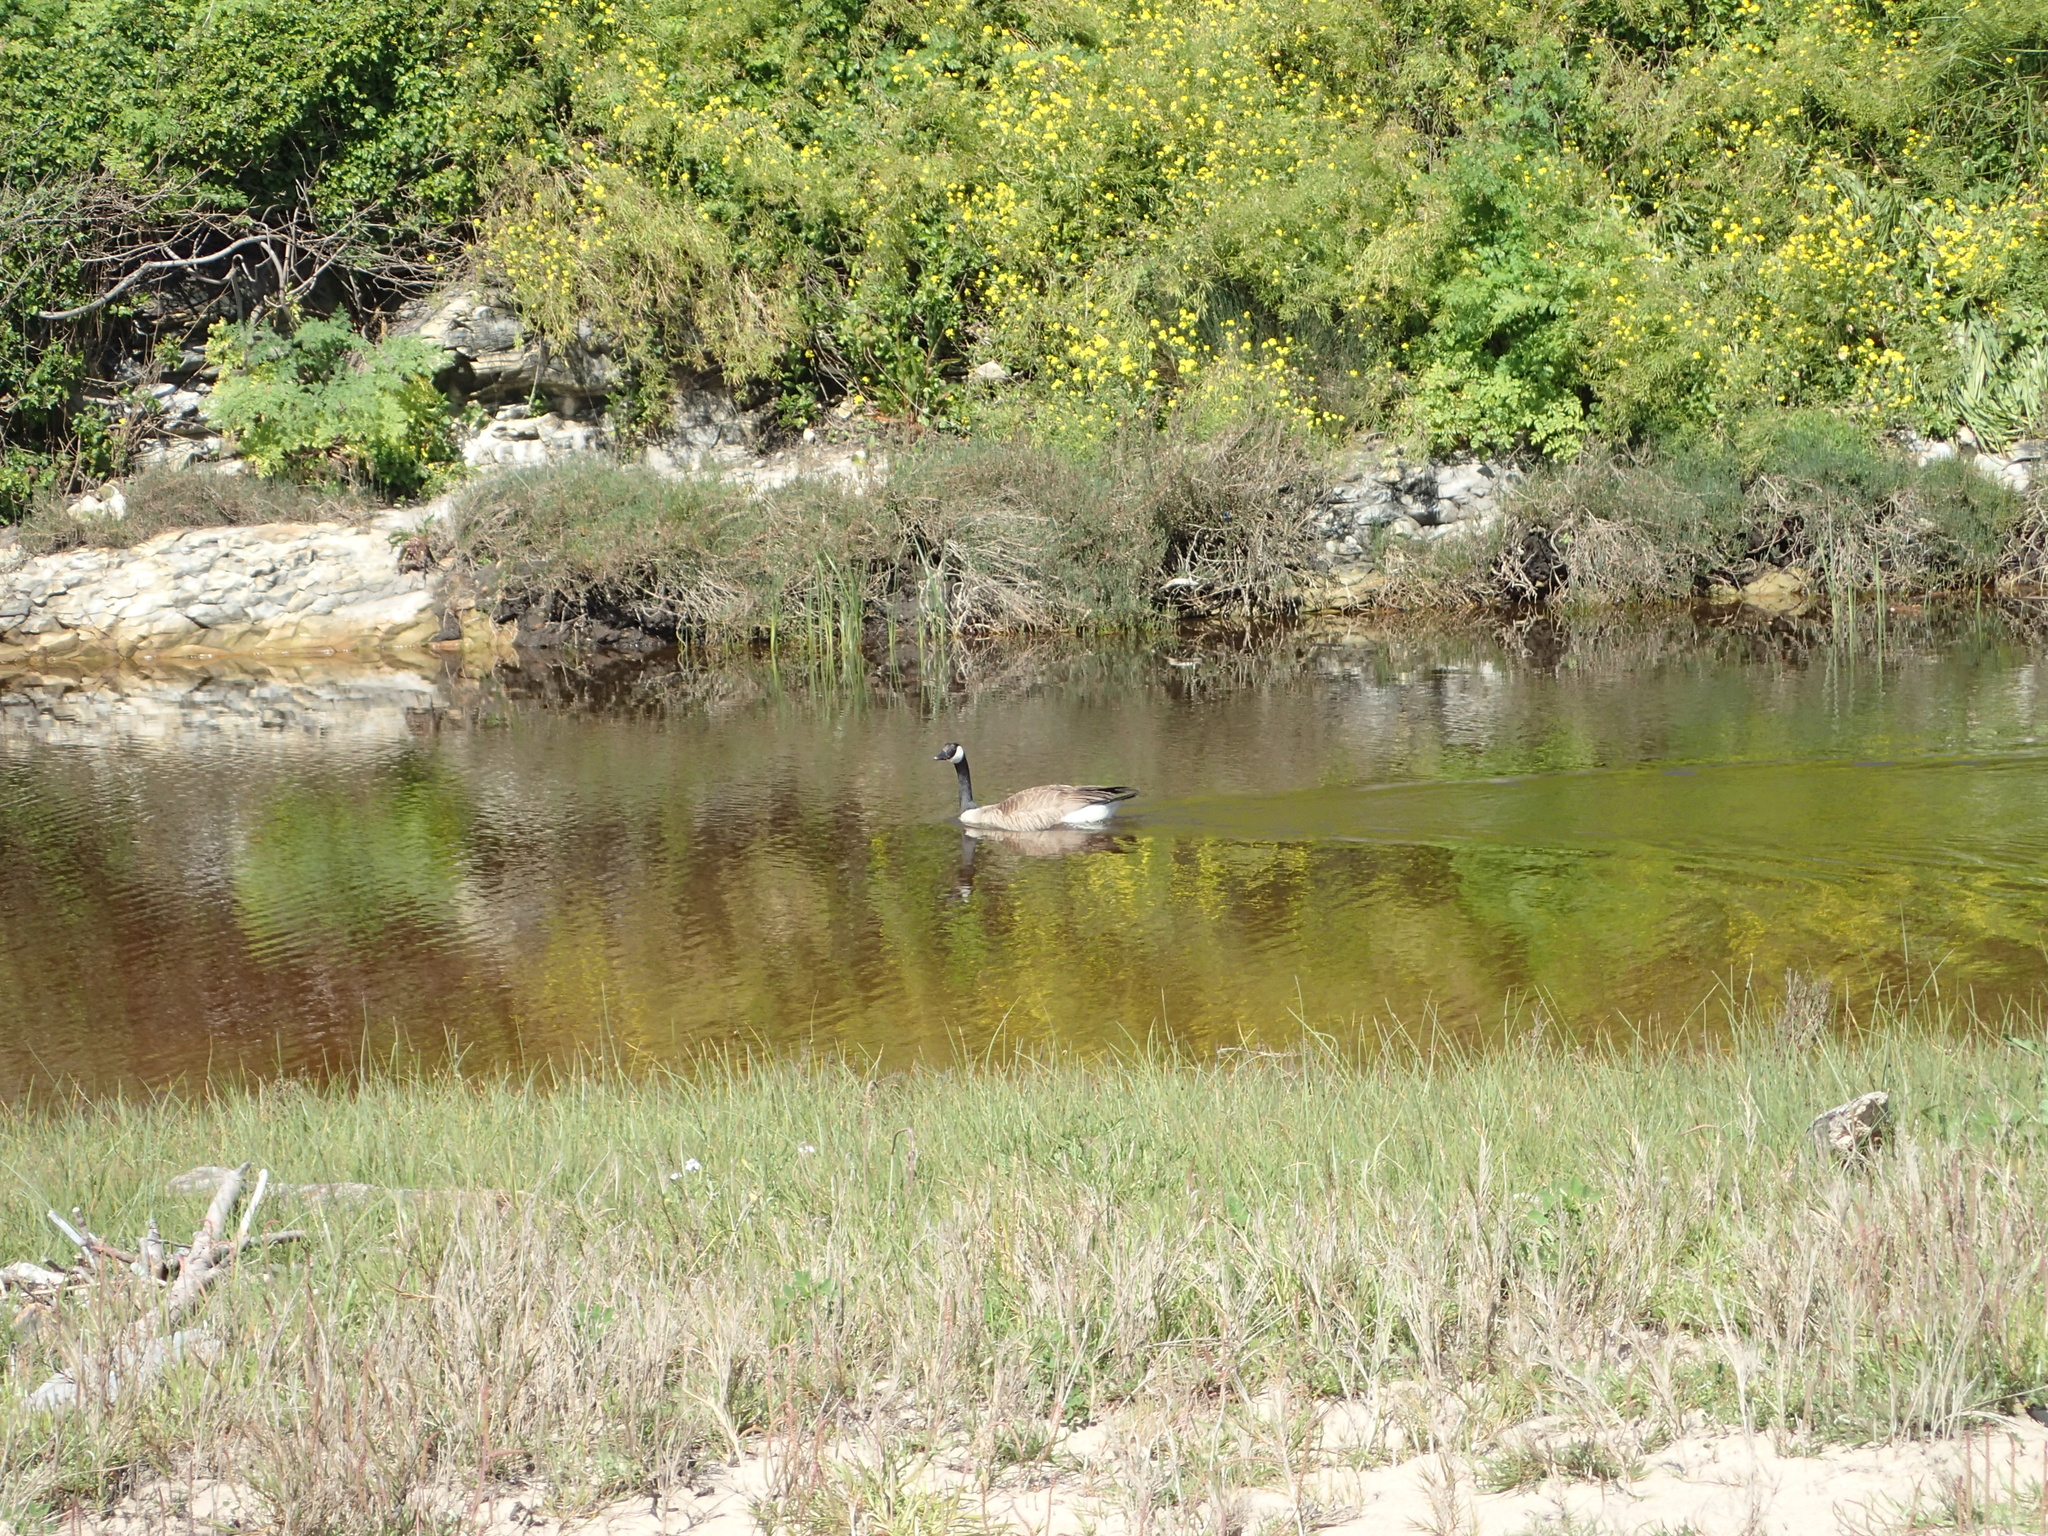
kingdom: Animalia
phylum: Chordata
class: Aves
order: Anseriformes
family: Anatidae
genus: Branta
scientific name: Branta canadensis
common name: Canada goose
